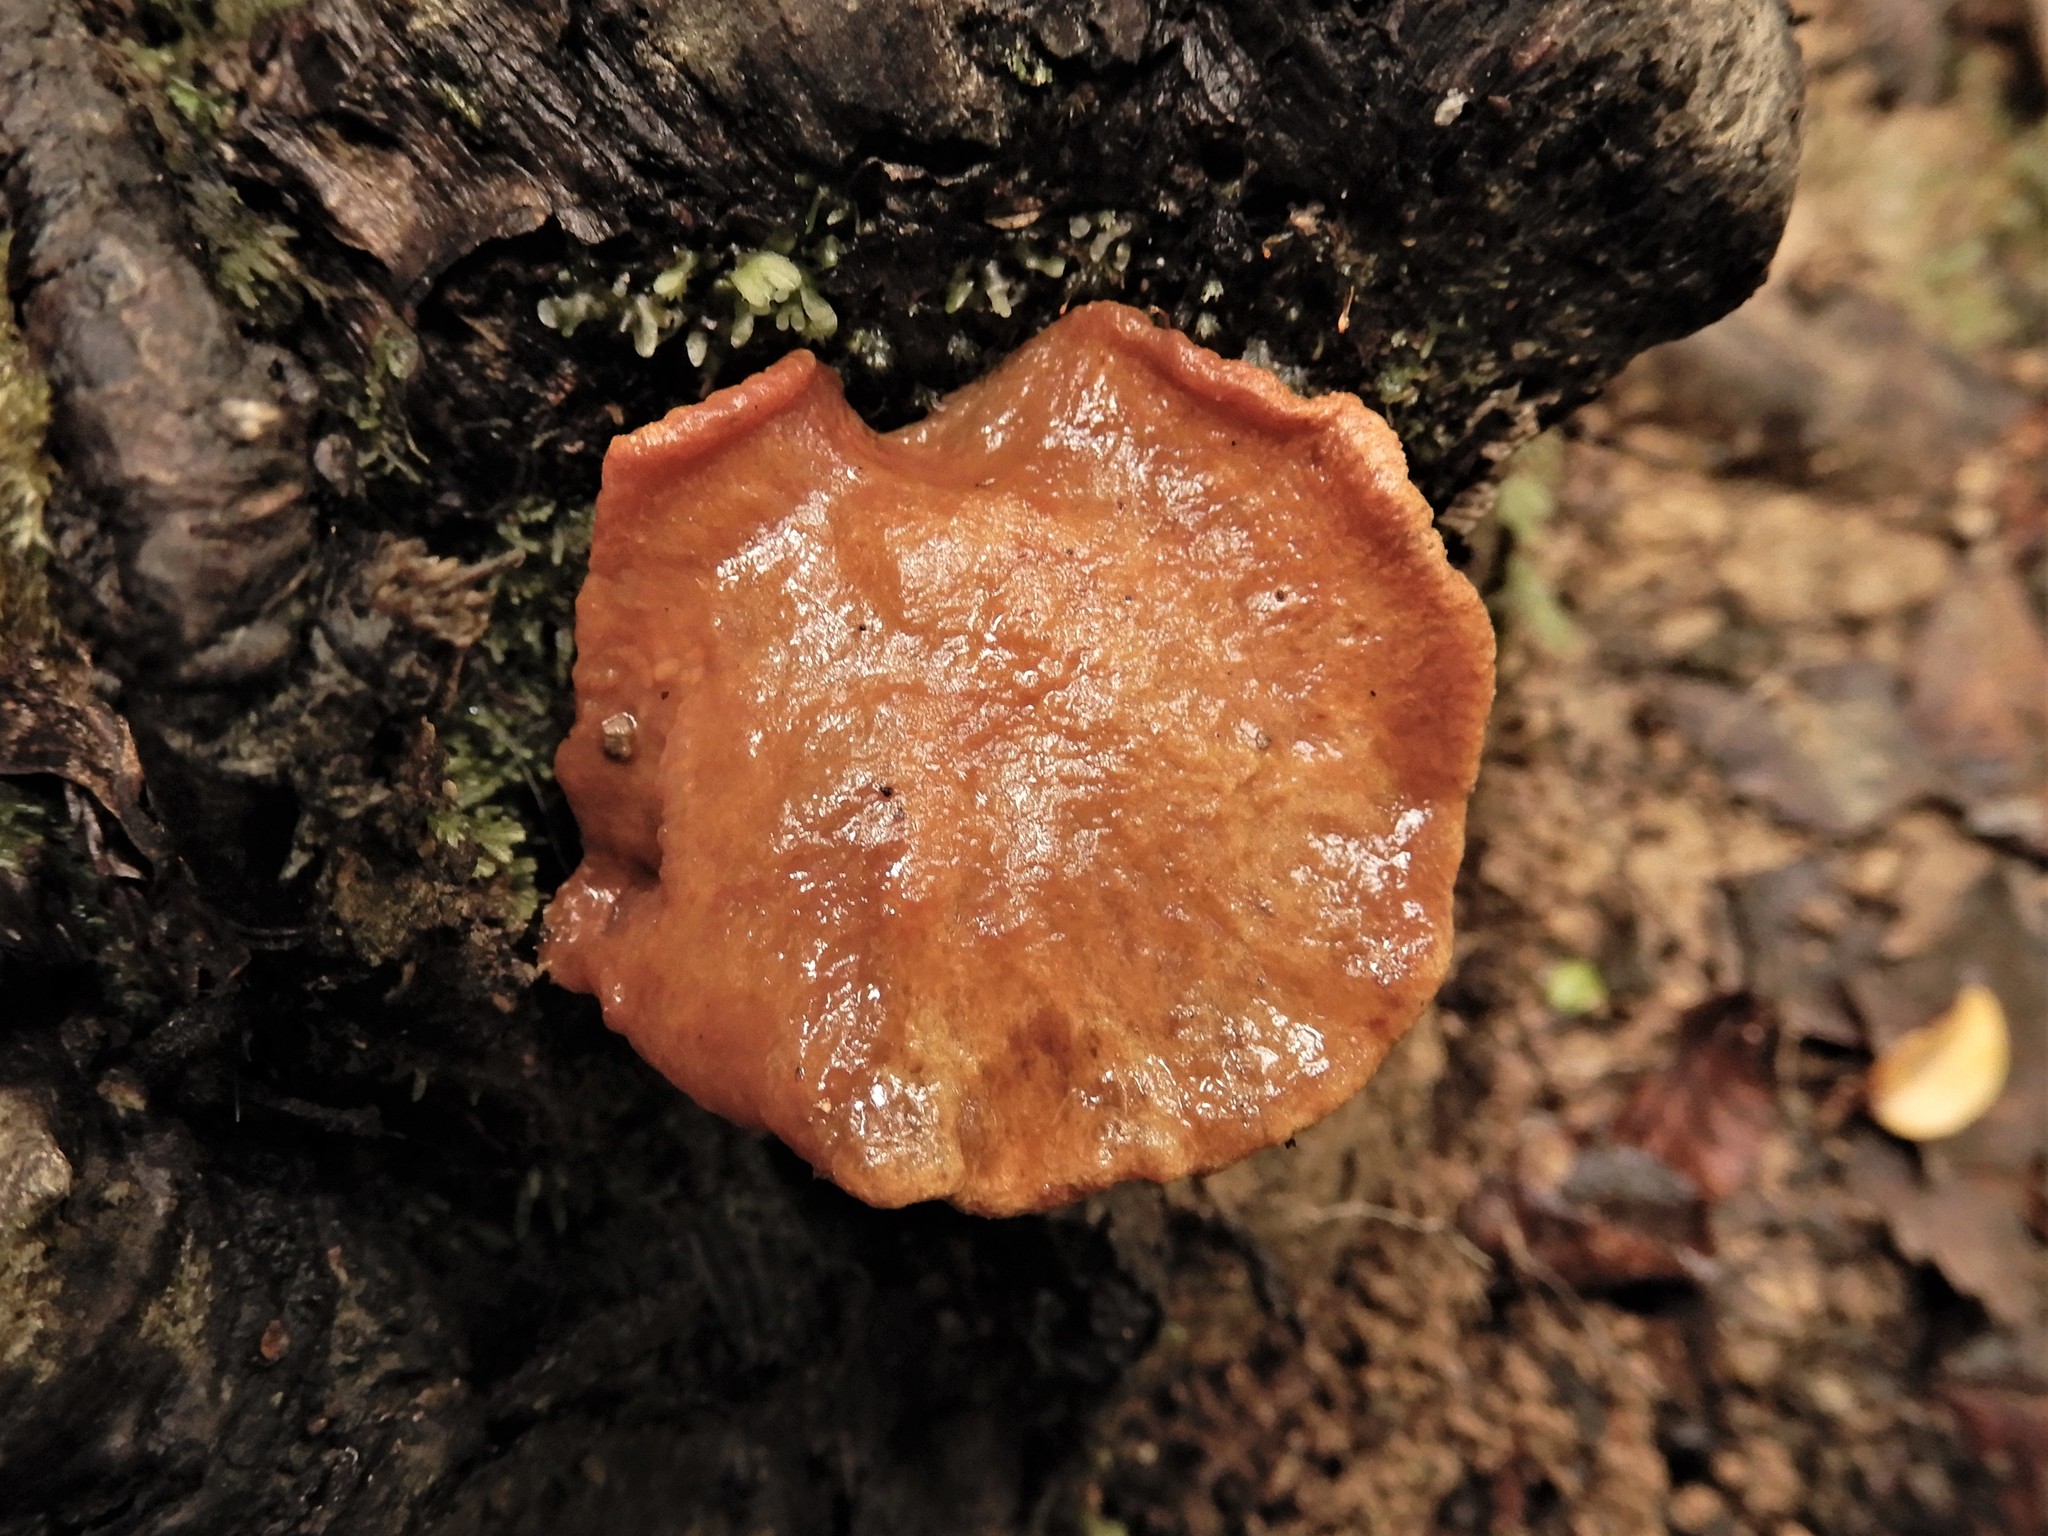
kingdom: Fungi
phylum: Basidiomycota
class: Agaricomycetes
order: Boletales
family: Boletaceae
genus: Chalciporus
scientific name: Chalciporus aurantiacus
